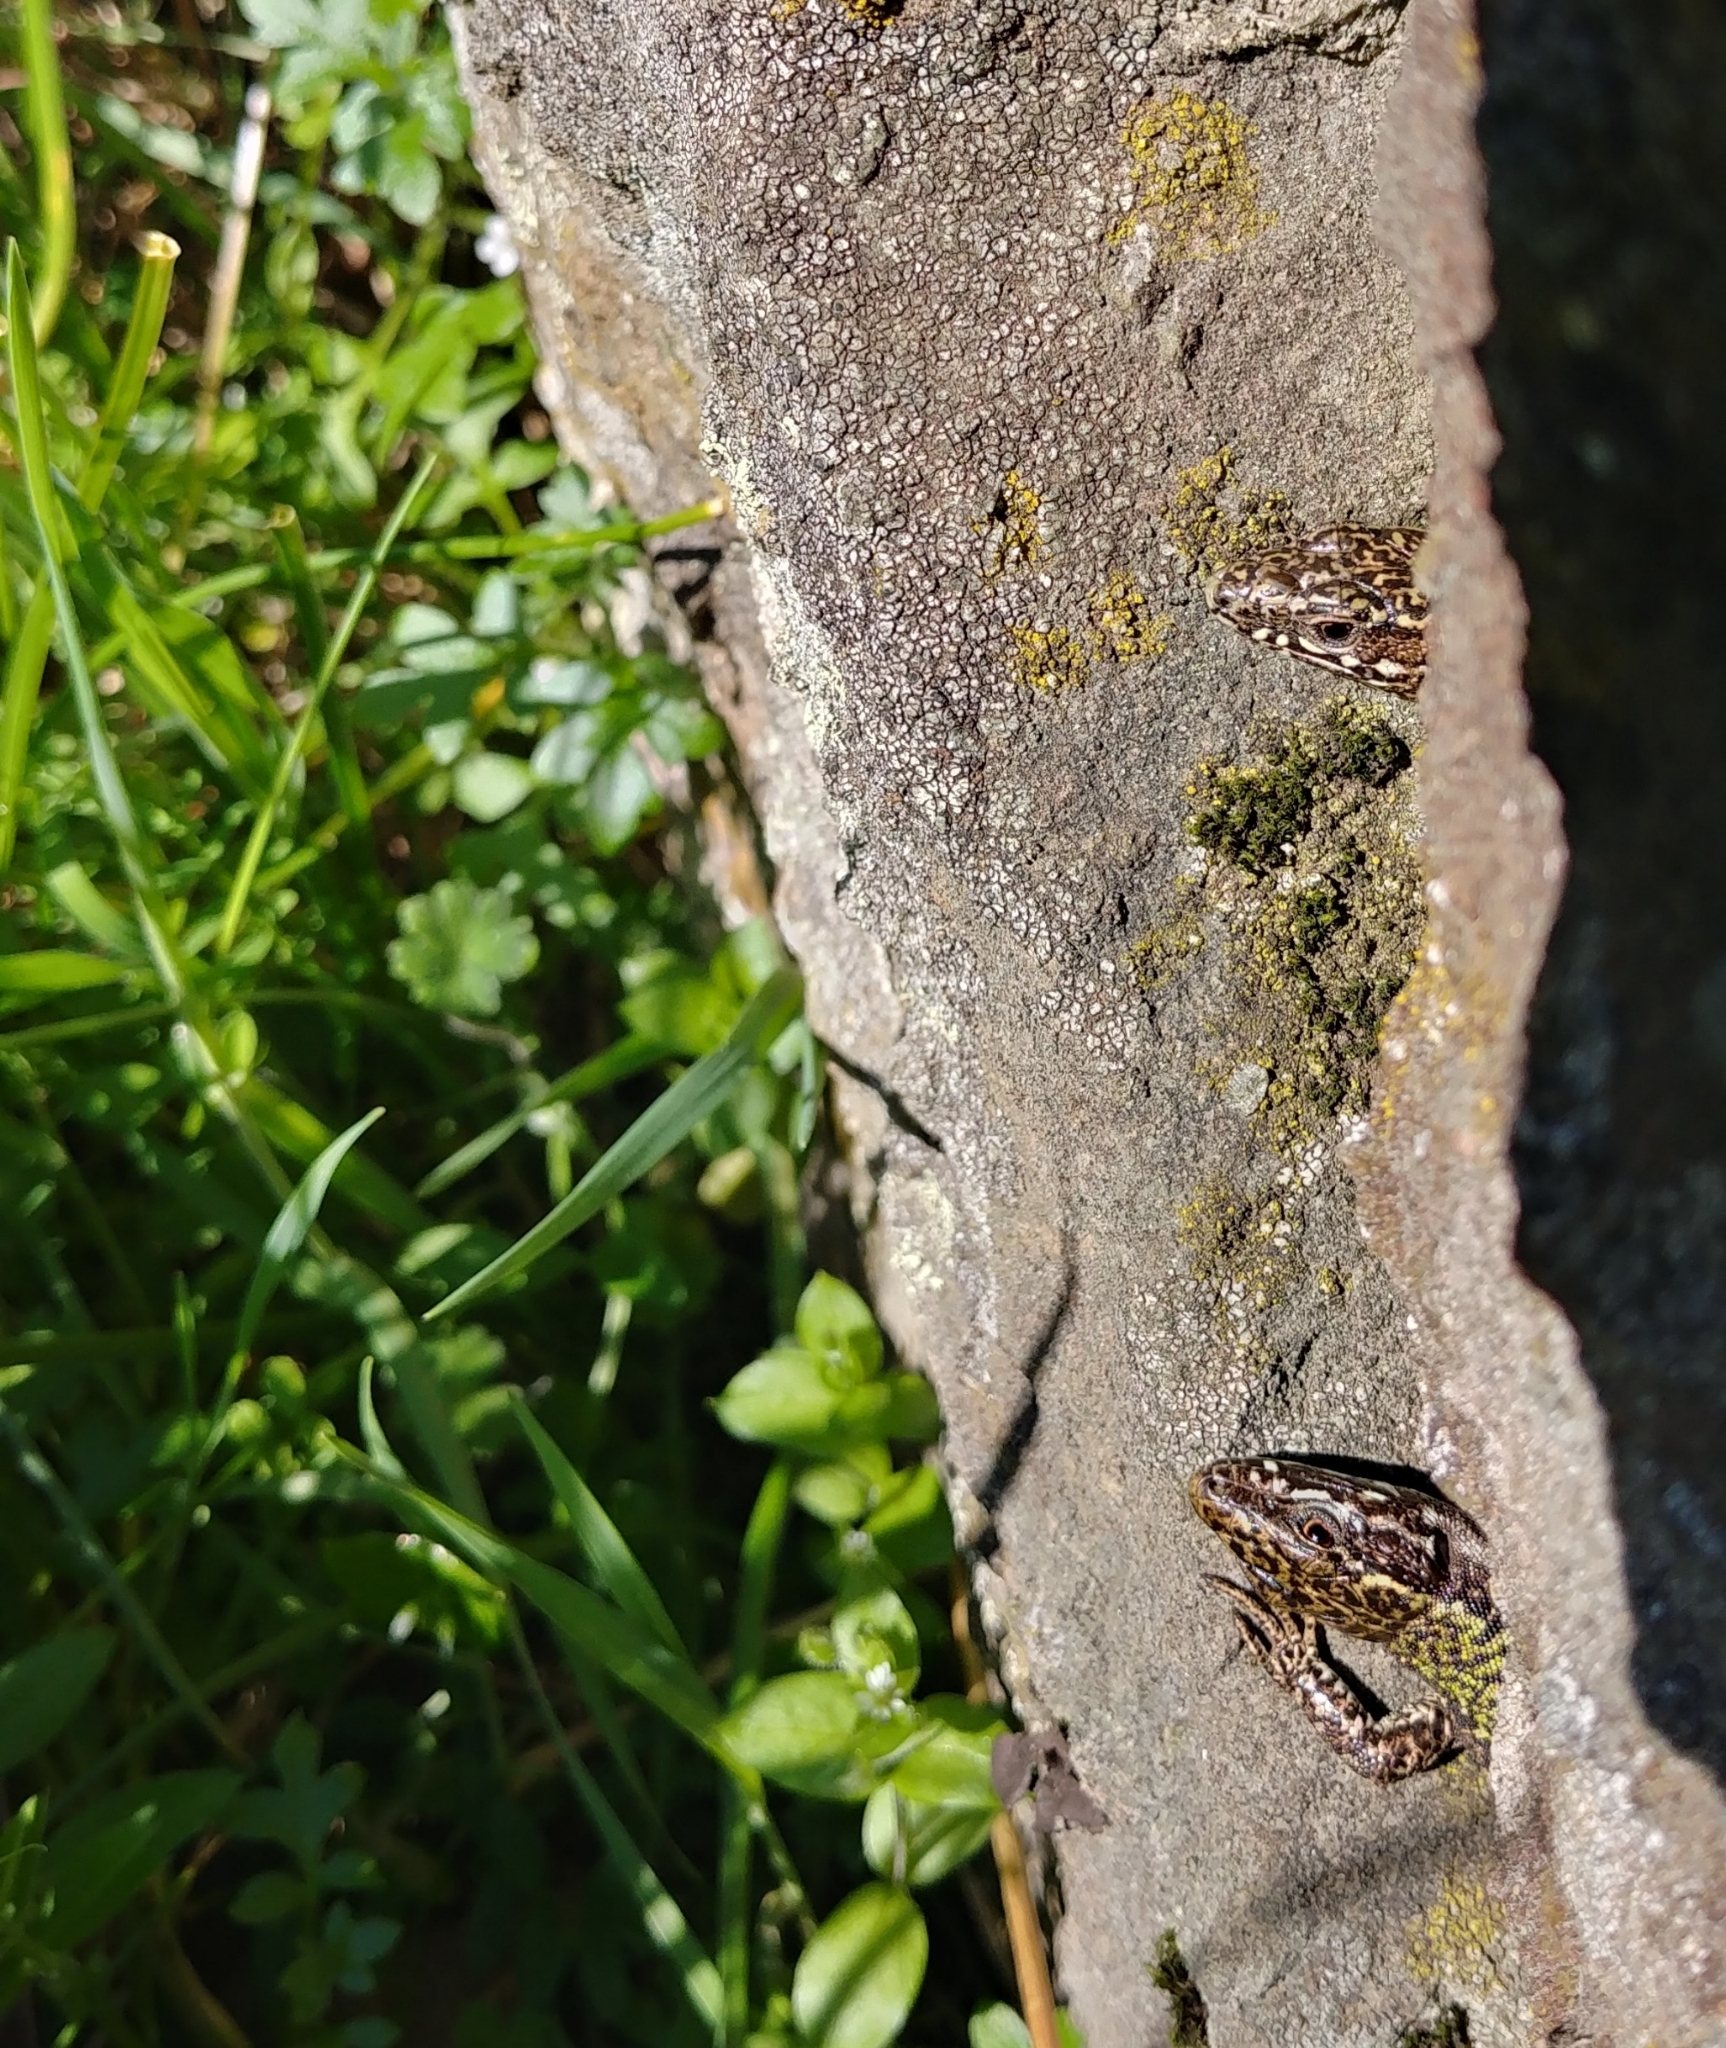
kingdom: Animalia
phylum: Chordata
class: Squamata
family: Lacertidae
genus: Podarcis
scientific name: Podarcis muralis
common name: Common wall lizard
